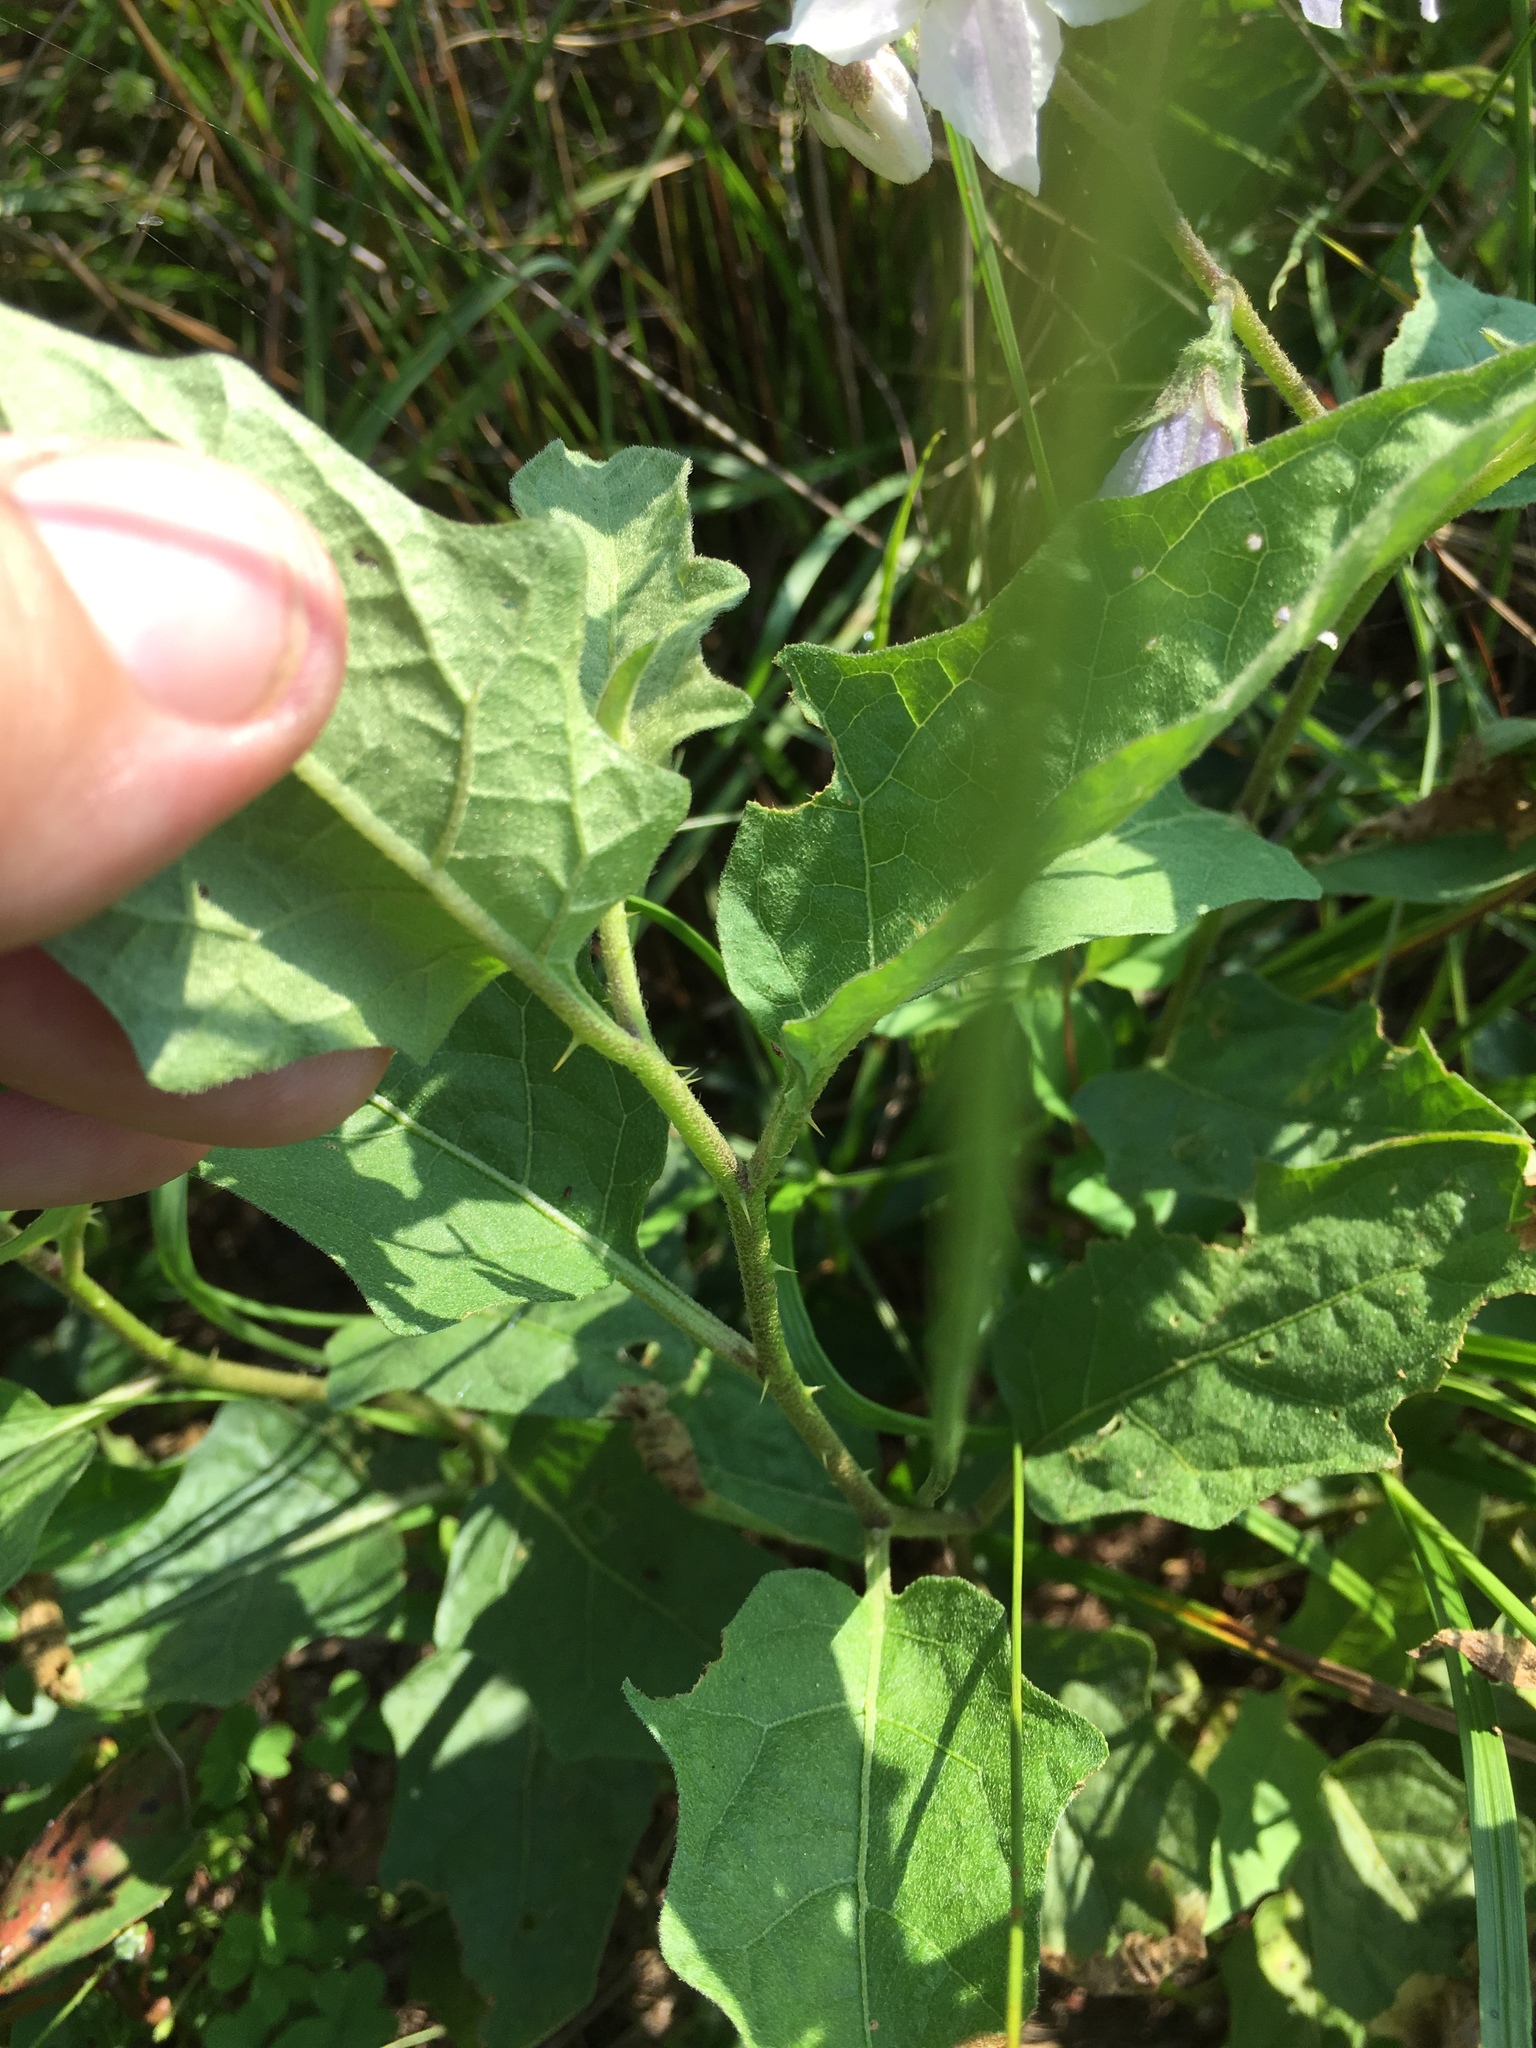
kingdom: Plantae
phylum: Tracheophyta
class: Magnoliopsida
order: Solanales
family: Solanaceae
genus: Solanum
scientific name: Solanum carolinense
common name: Horse-nettle
